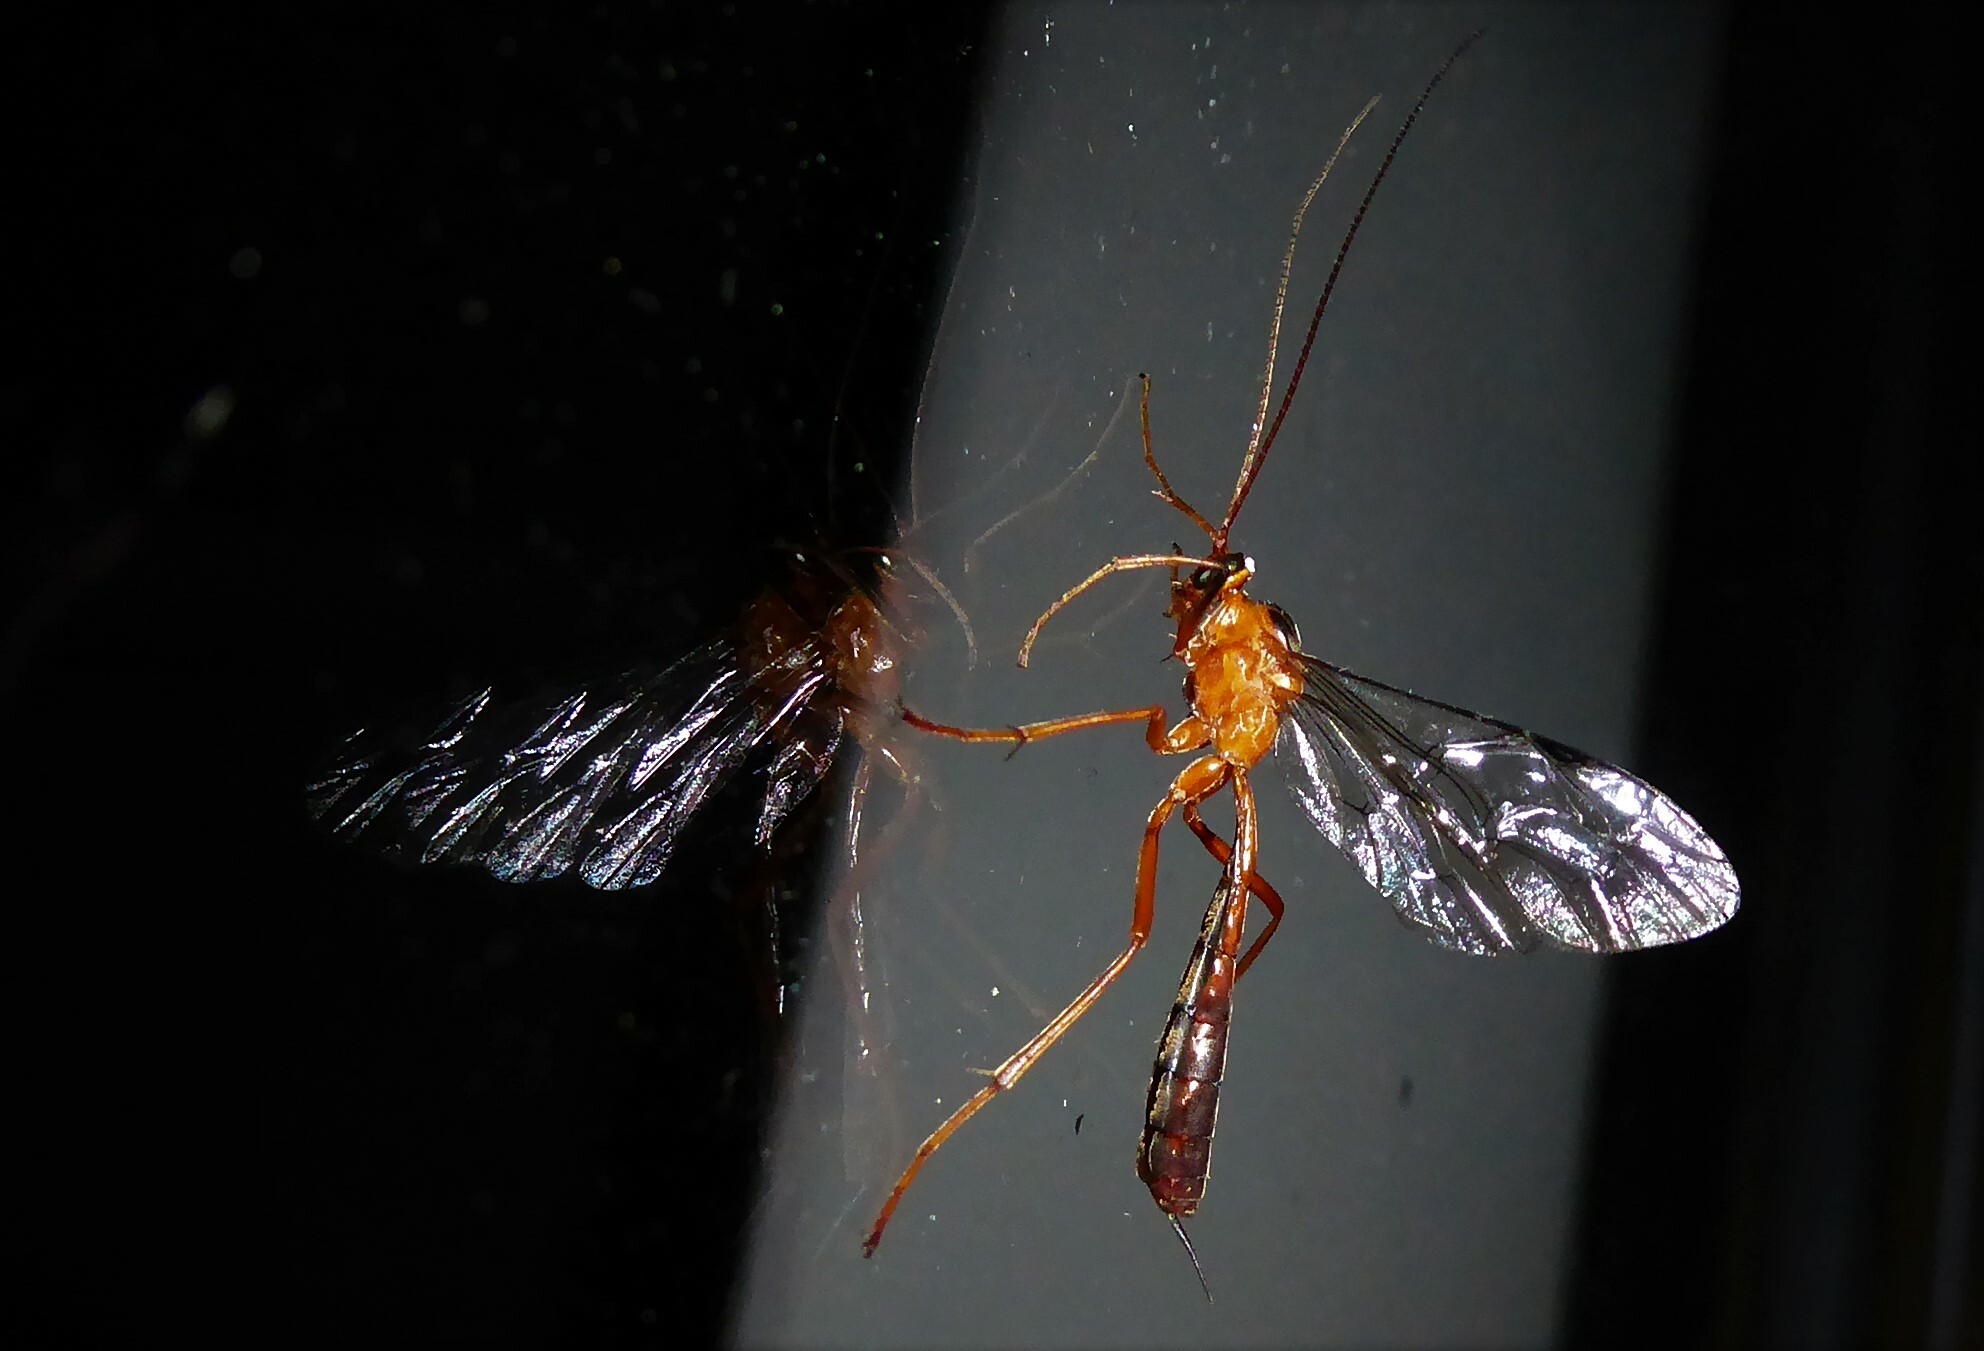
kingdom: Animalia
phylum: Arthropoda
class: Insecta
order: Hymenoptera
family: Ichneumonidae
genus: Netelia
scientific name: Netelia ephippiata
